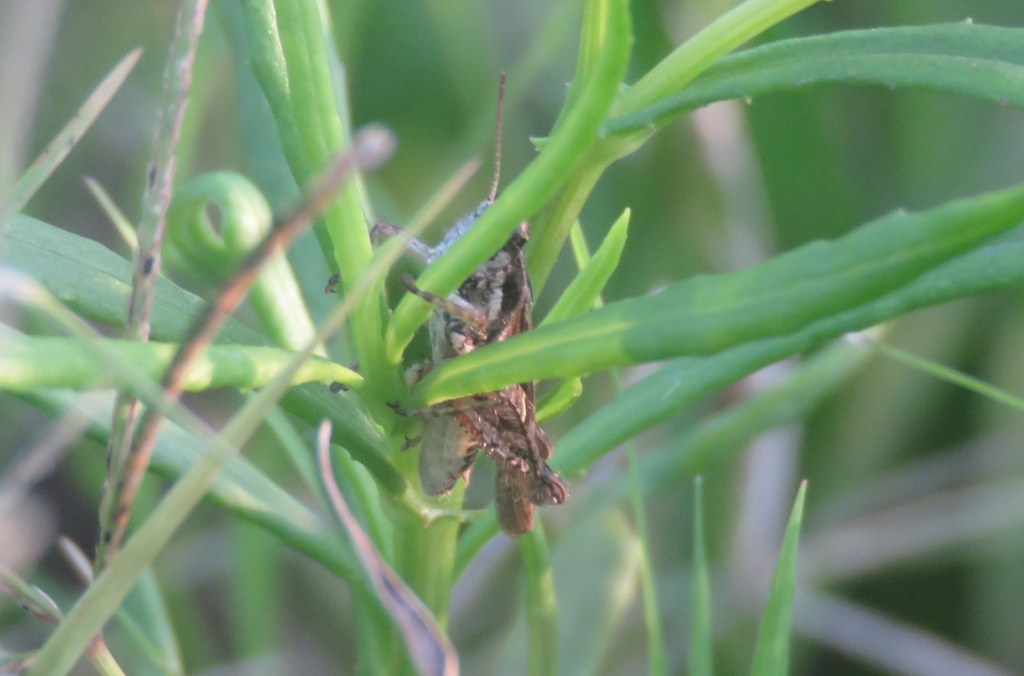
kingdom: Animalia
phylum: Arthropoda
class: Insecta
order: Orthoptera
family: Acrididae
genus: Baeacris
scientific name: Baeacris
